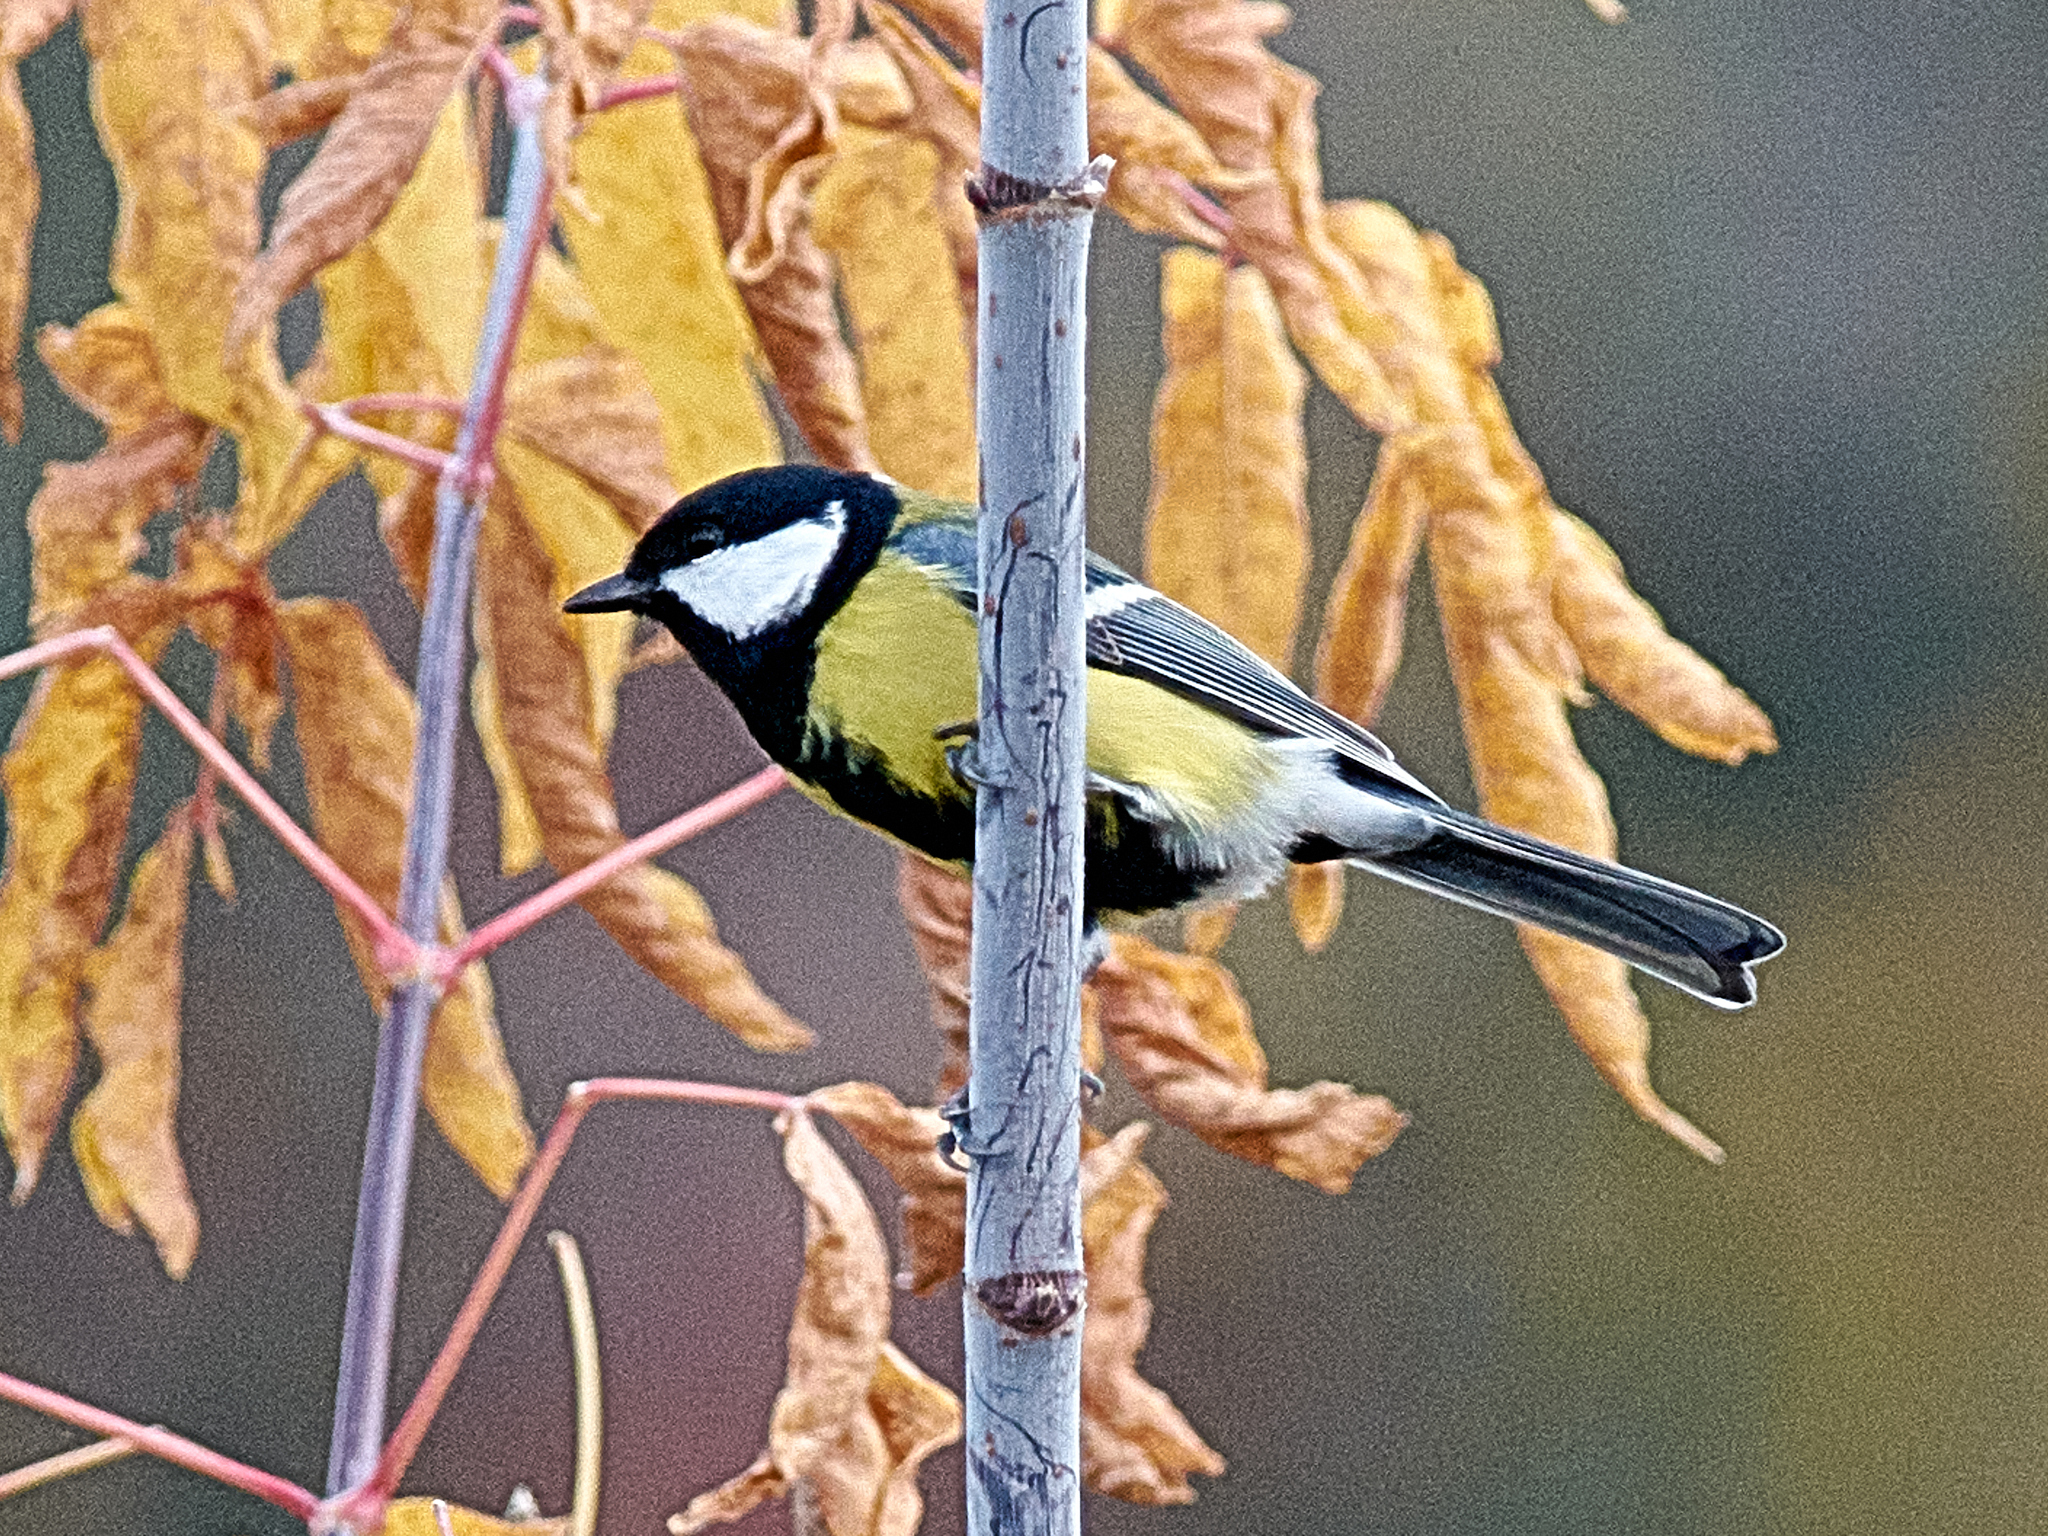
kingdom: Animalia
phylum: Chordata
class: Aves
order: Passeriformes
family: Paridae
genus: Parus
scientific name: Parus major
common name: Great tit
